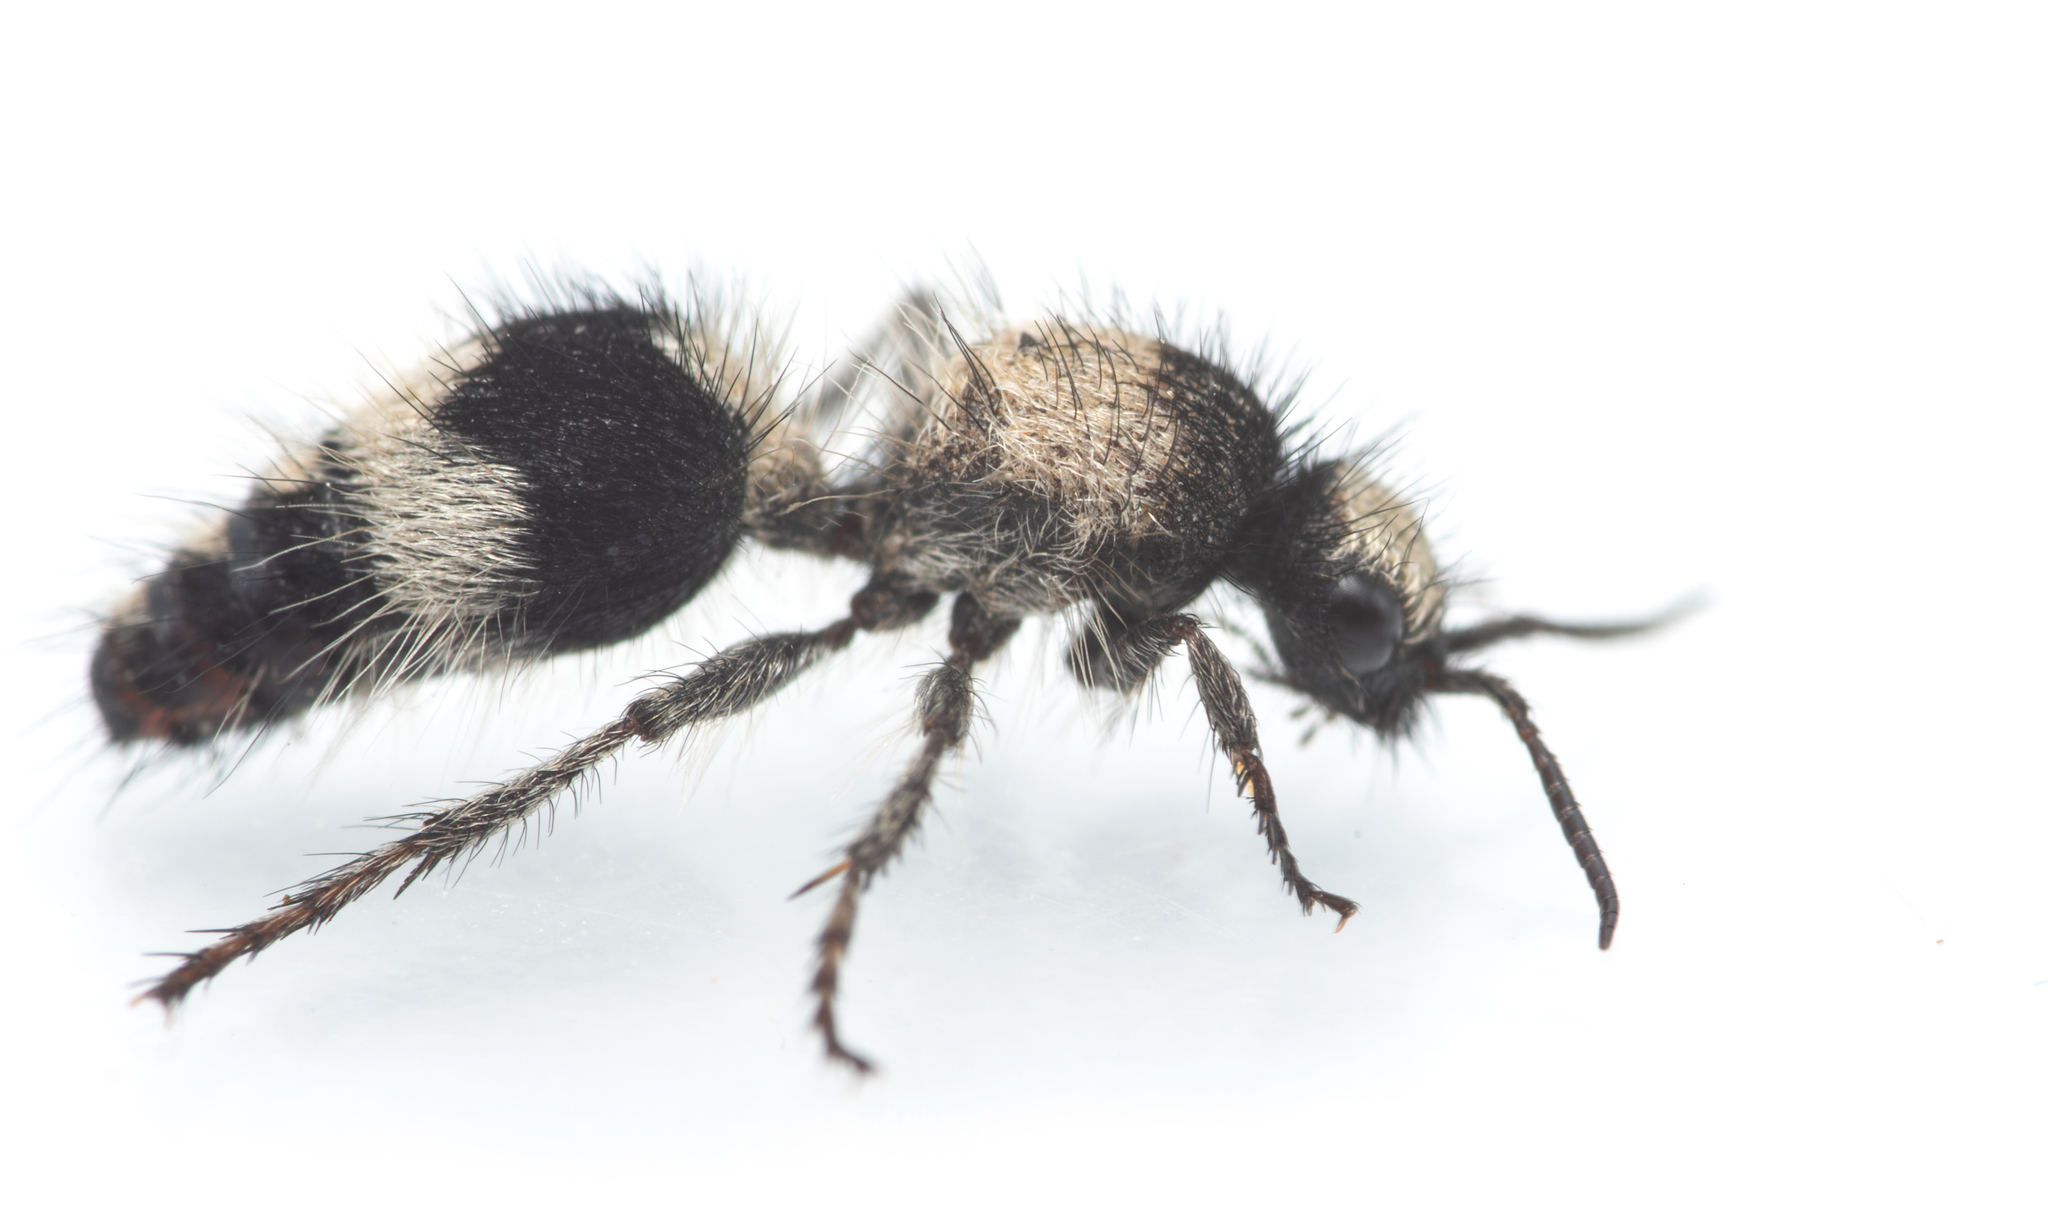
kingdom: Animalia
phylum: Arthropoda
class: Insecta
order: Hymenoptera
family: Mutillidae
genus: Dasylabris
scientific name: Dasylabris lugubris
